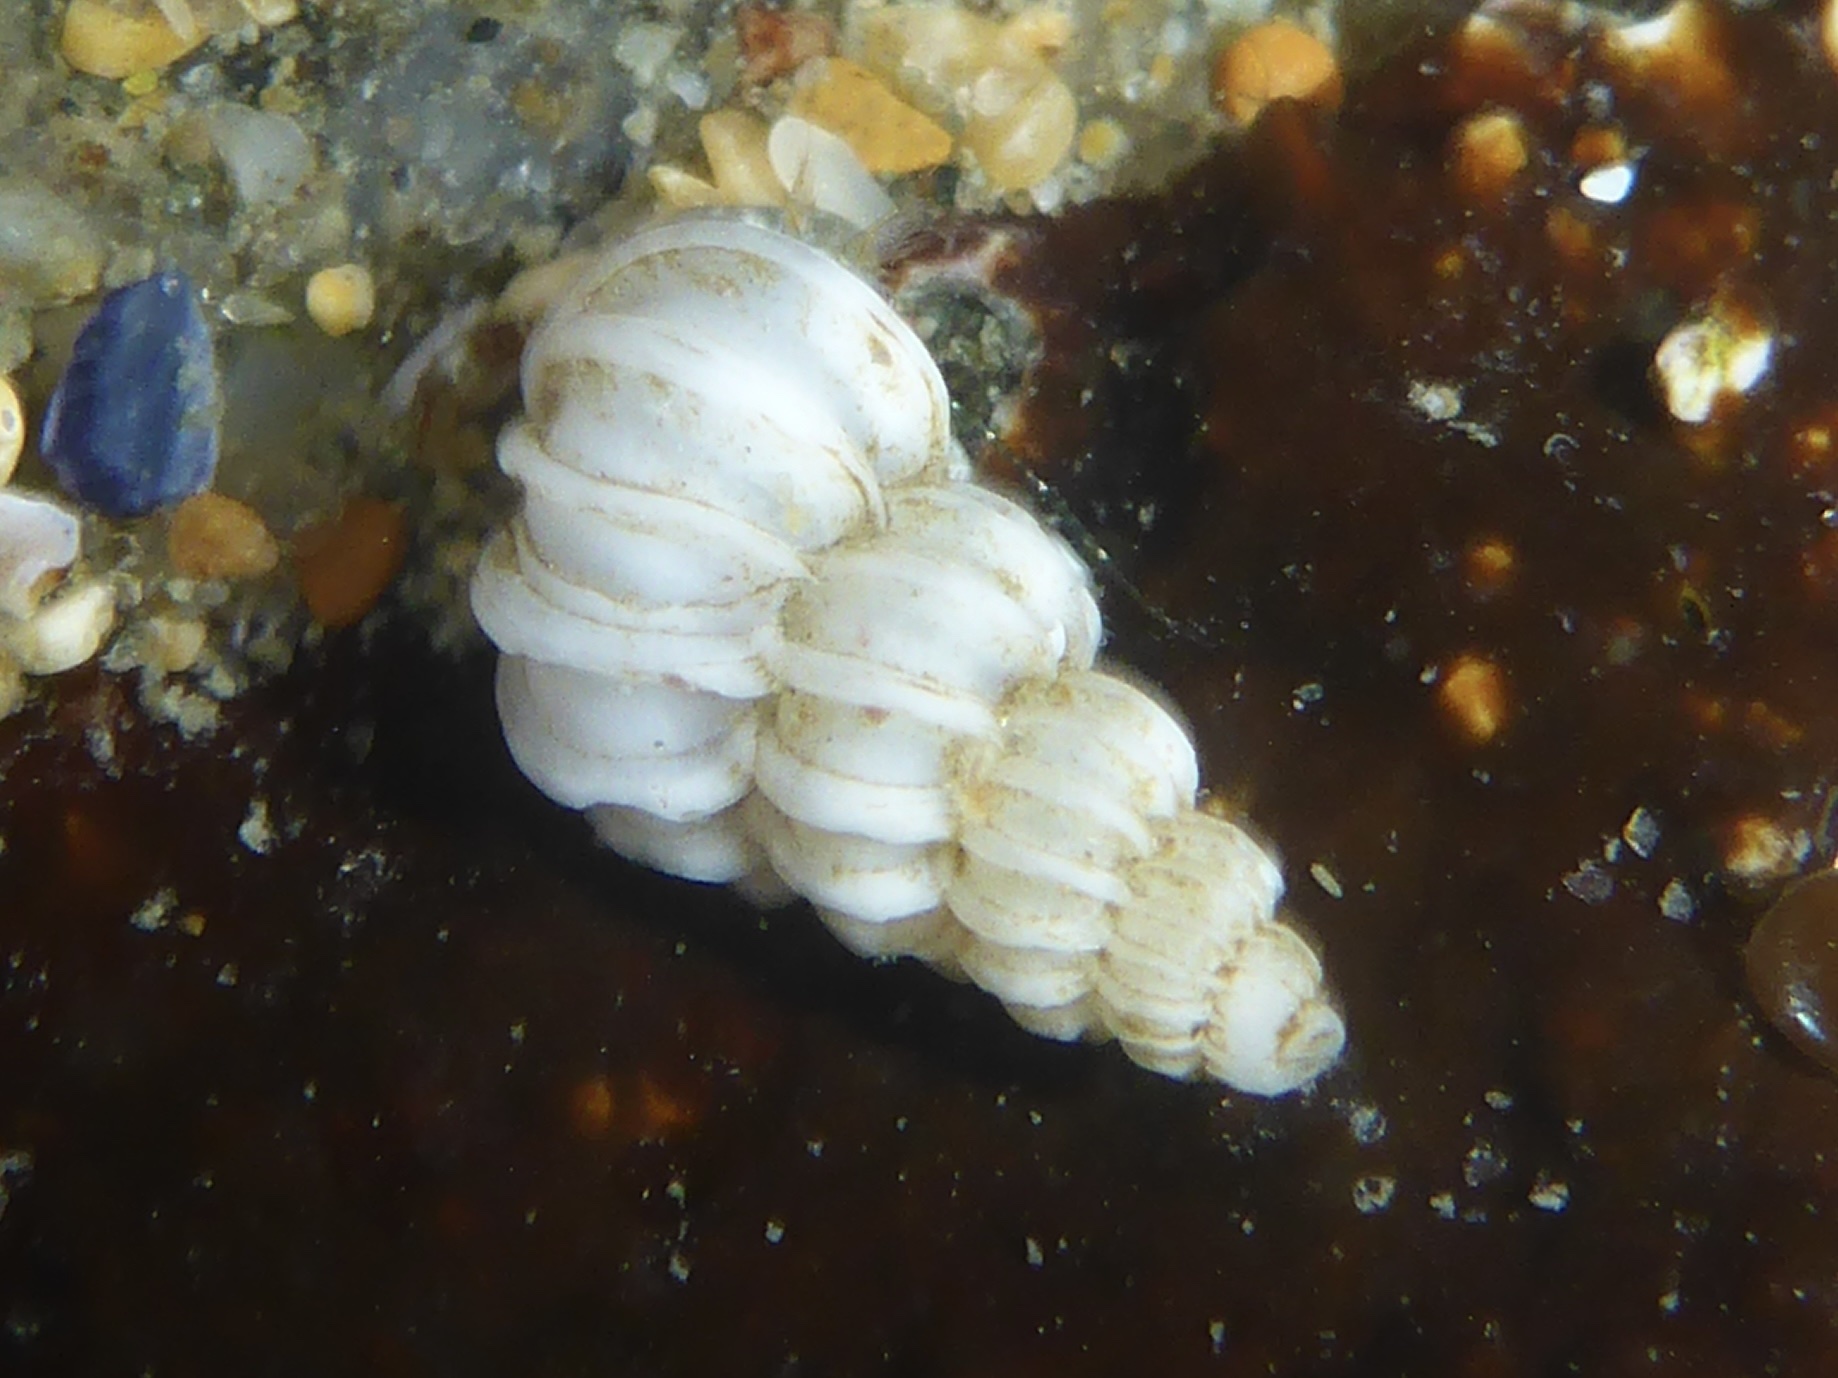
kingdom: Animalia
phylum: Mollusca
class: Gastropoda
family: Epitoniidae
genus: Epitonium
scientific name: Epitonium tinctum
